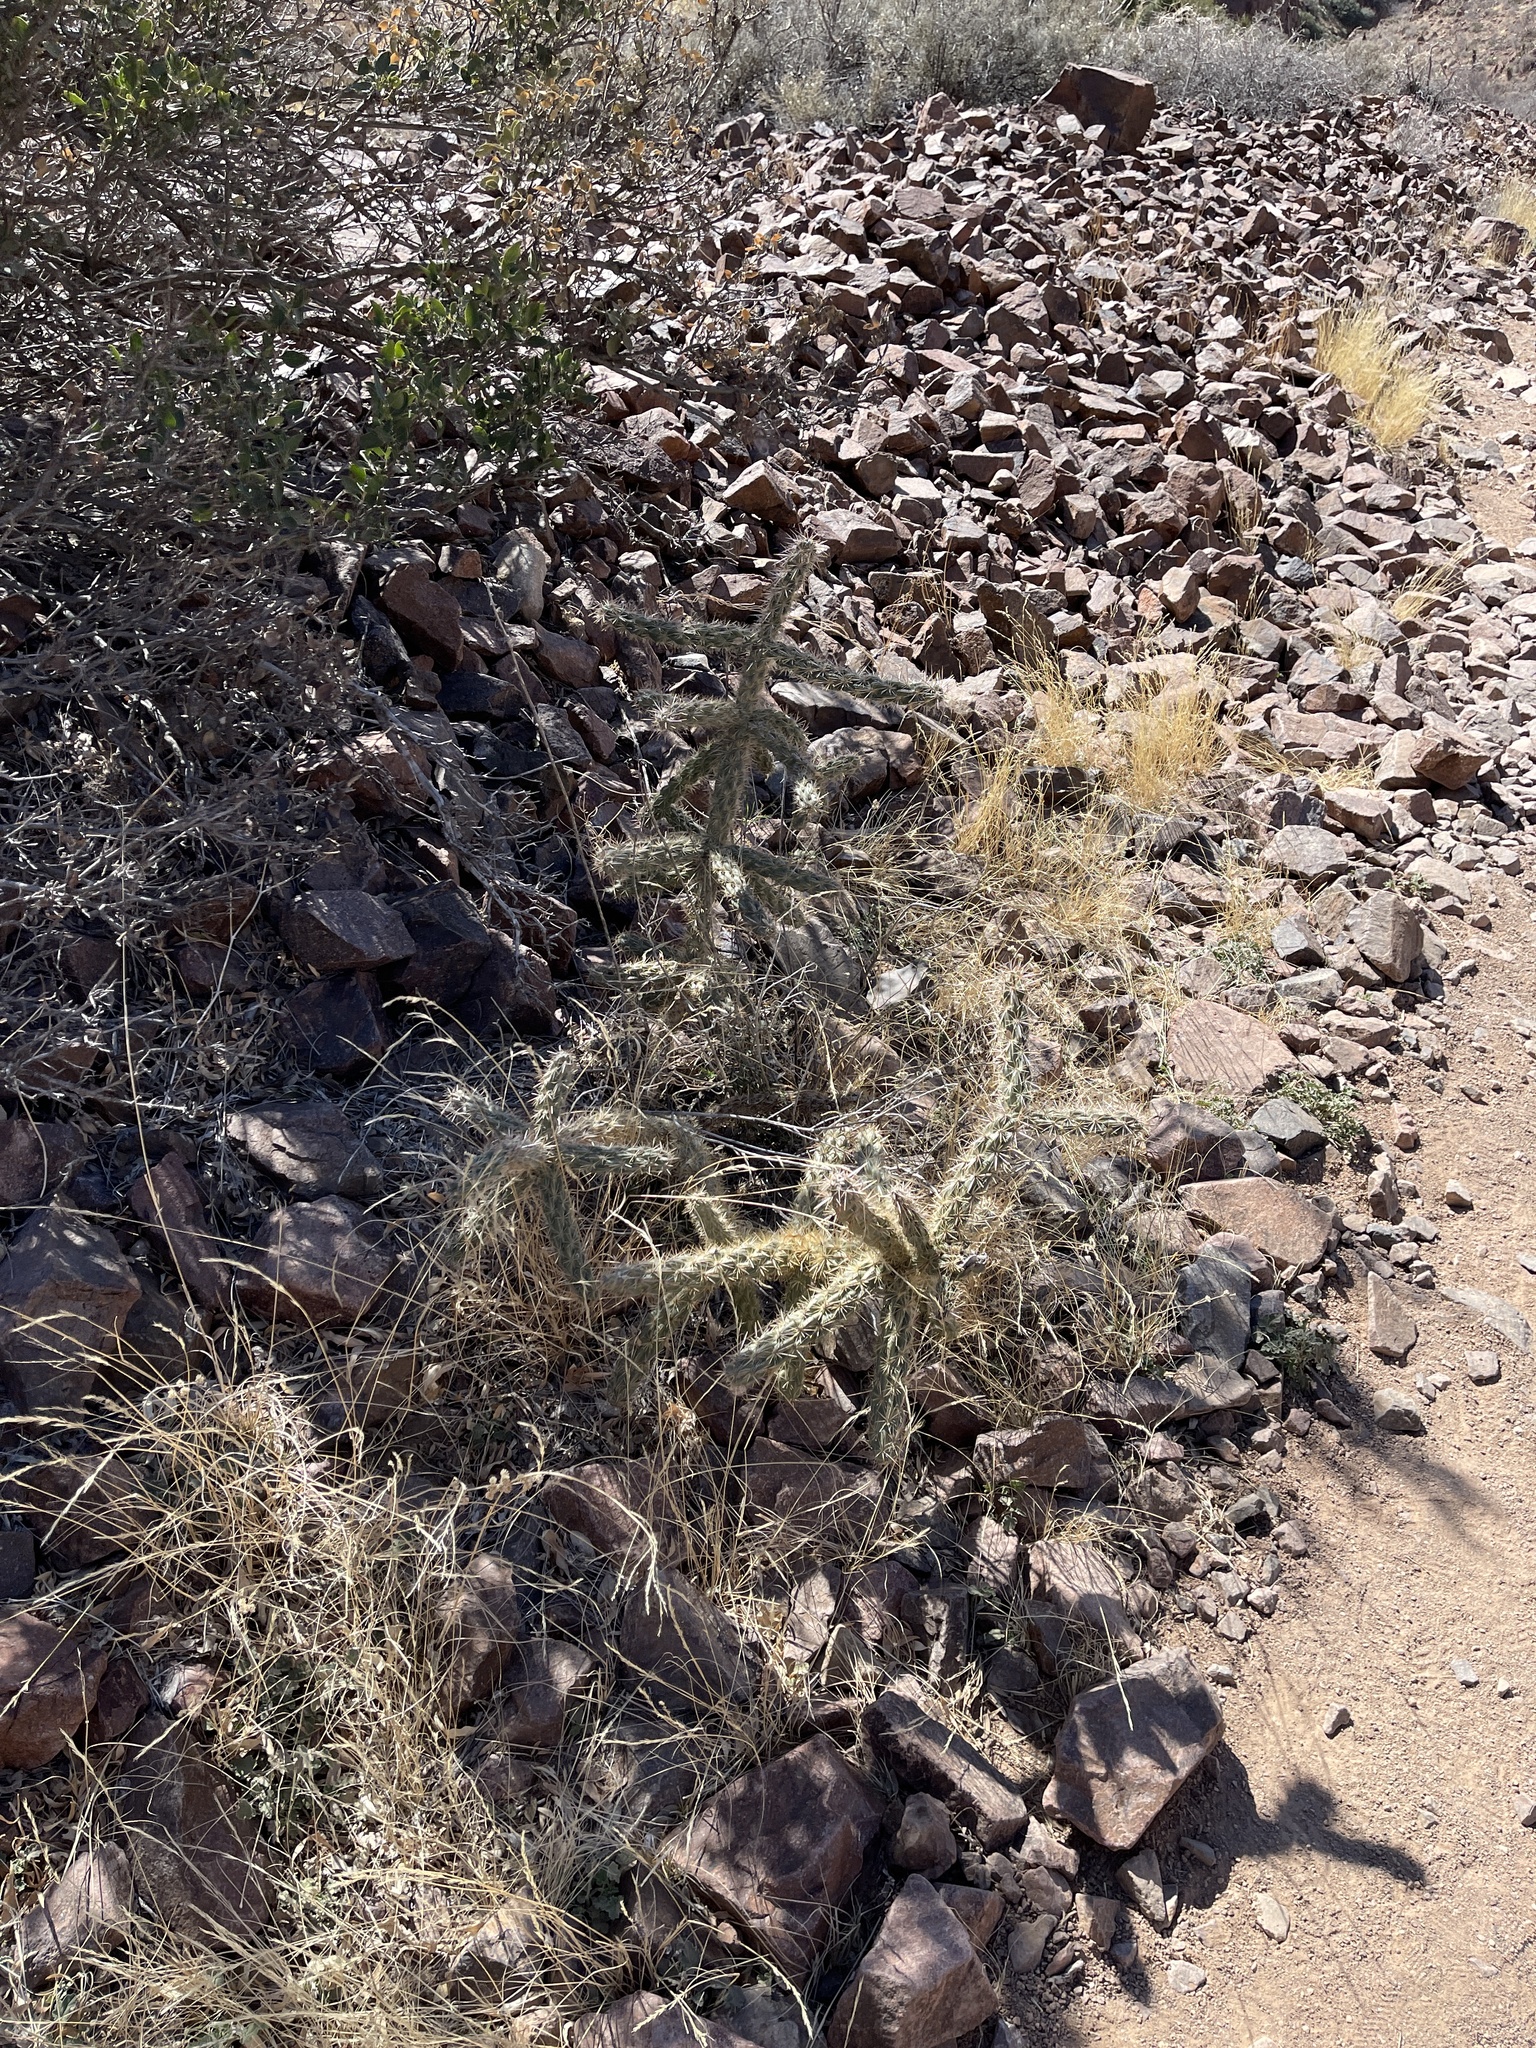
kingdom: Plantae
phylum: Tracheophyta
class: Magnoliopsida
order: Caryophyllales
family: Cactaceae
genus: Cylindropuntia
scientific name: Cylindropuntia imbricata
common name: Candelabrum cactus
